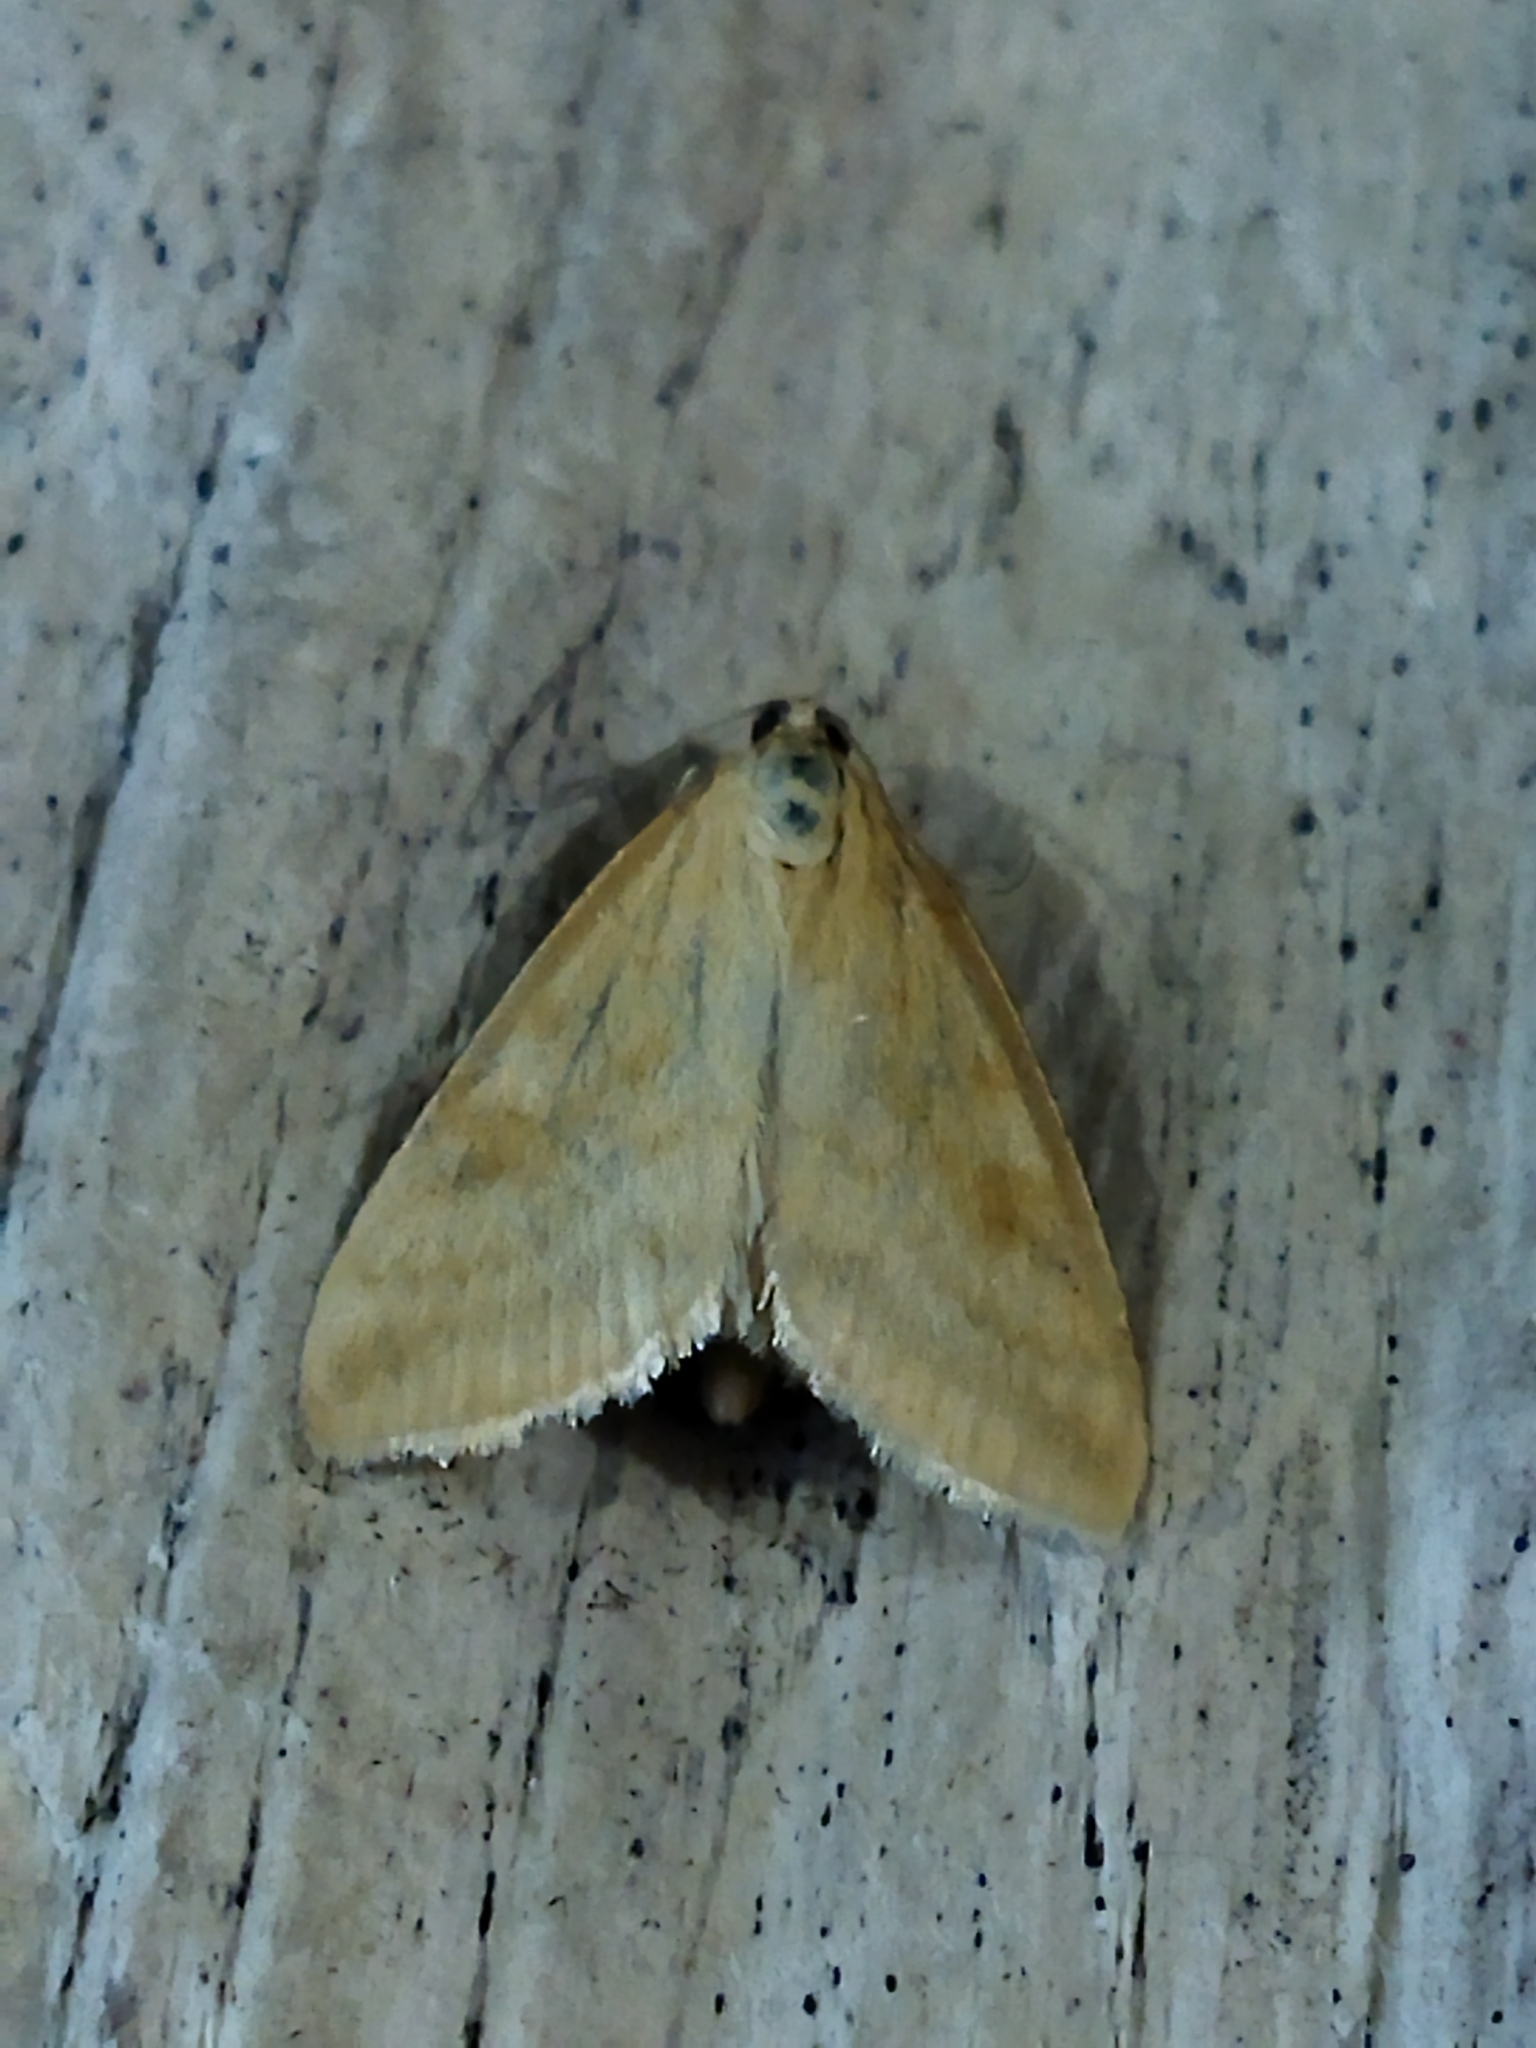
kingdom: Animalia
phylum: Arthropoda
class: Insecta
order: Lepidoptera
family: Crambidae
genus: Sitochroa
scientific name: Sitochroa verticalis
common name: Lesser pearl
